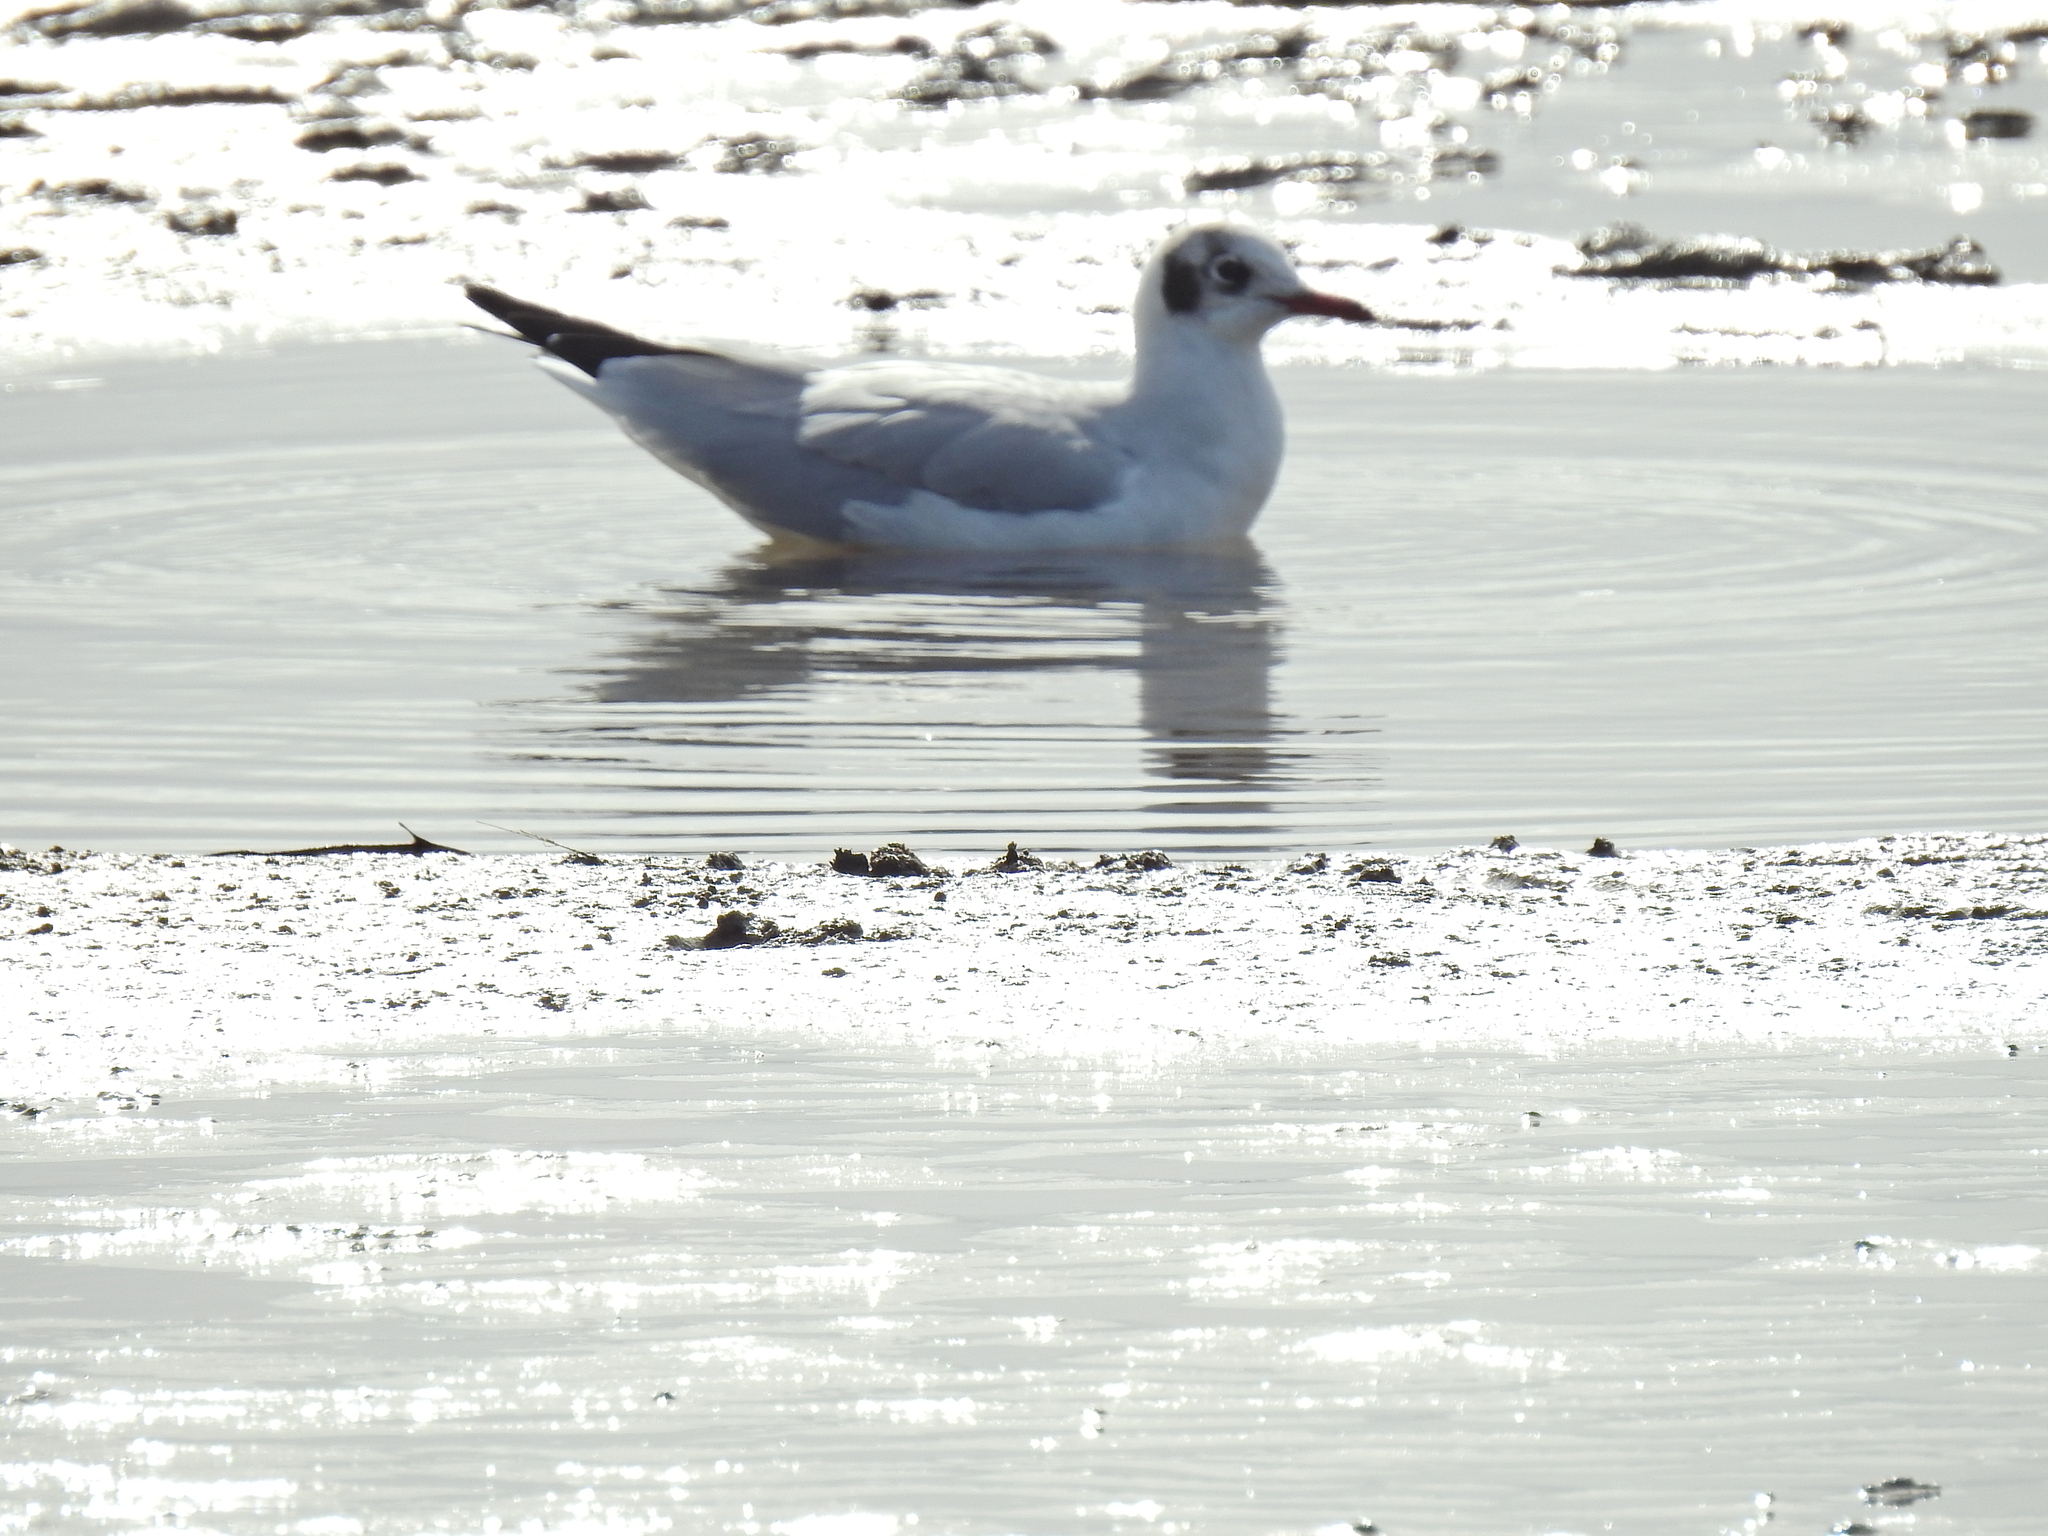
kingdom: Animalia
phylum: Chordata
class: Aves
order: Charadriiformes
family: Laridae
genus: Chroicocephalus
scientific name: Chroicocephalus ridibundus
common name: Black-headed gull
